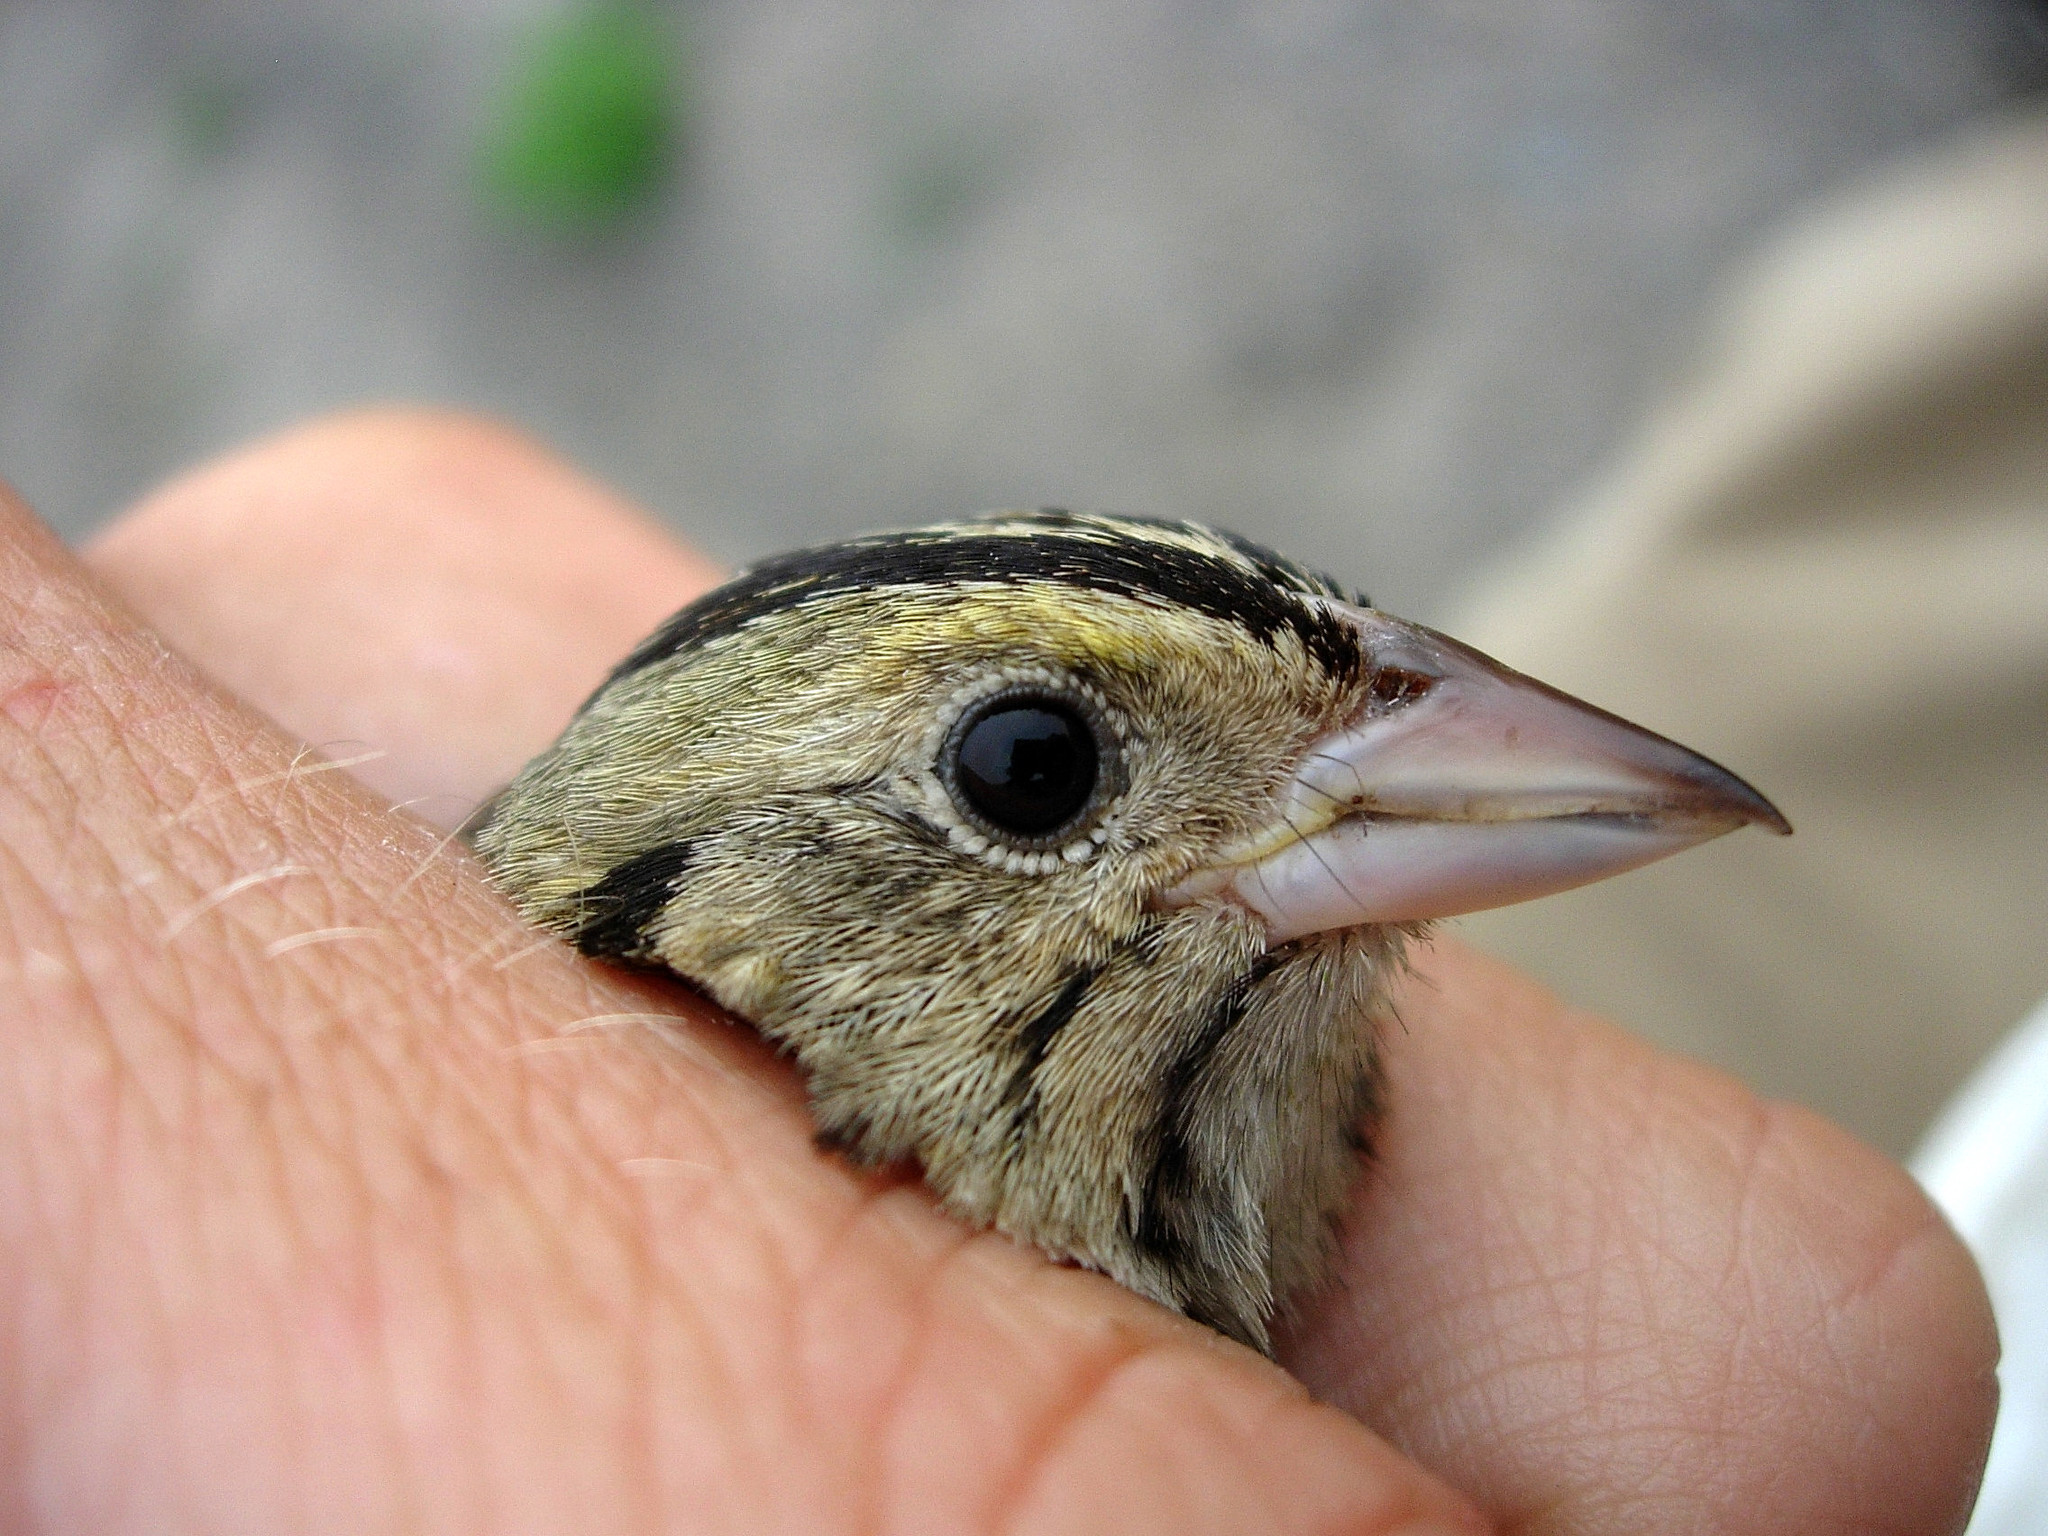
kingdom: Animalia
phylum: Chordata
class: Aves
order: Passeriformes
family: Passerellidae
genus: Centronyx
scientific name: Centronyx henslowii
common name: Henslow's sparrow
